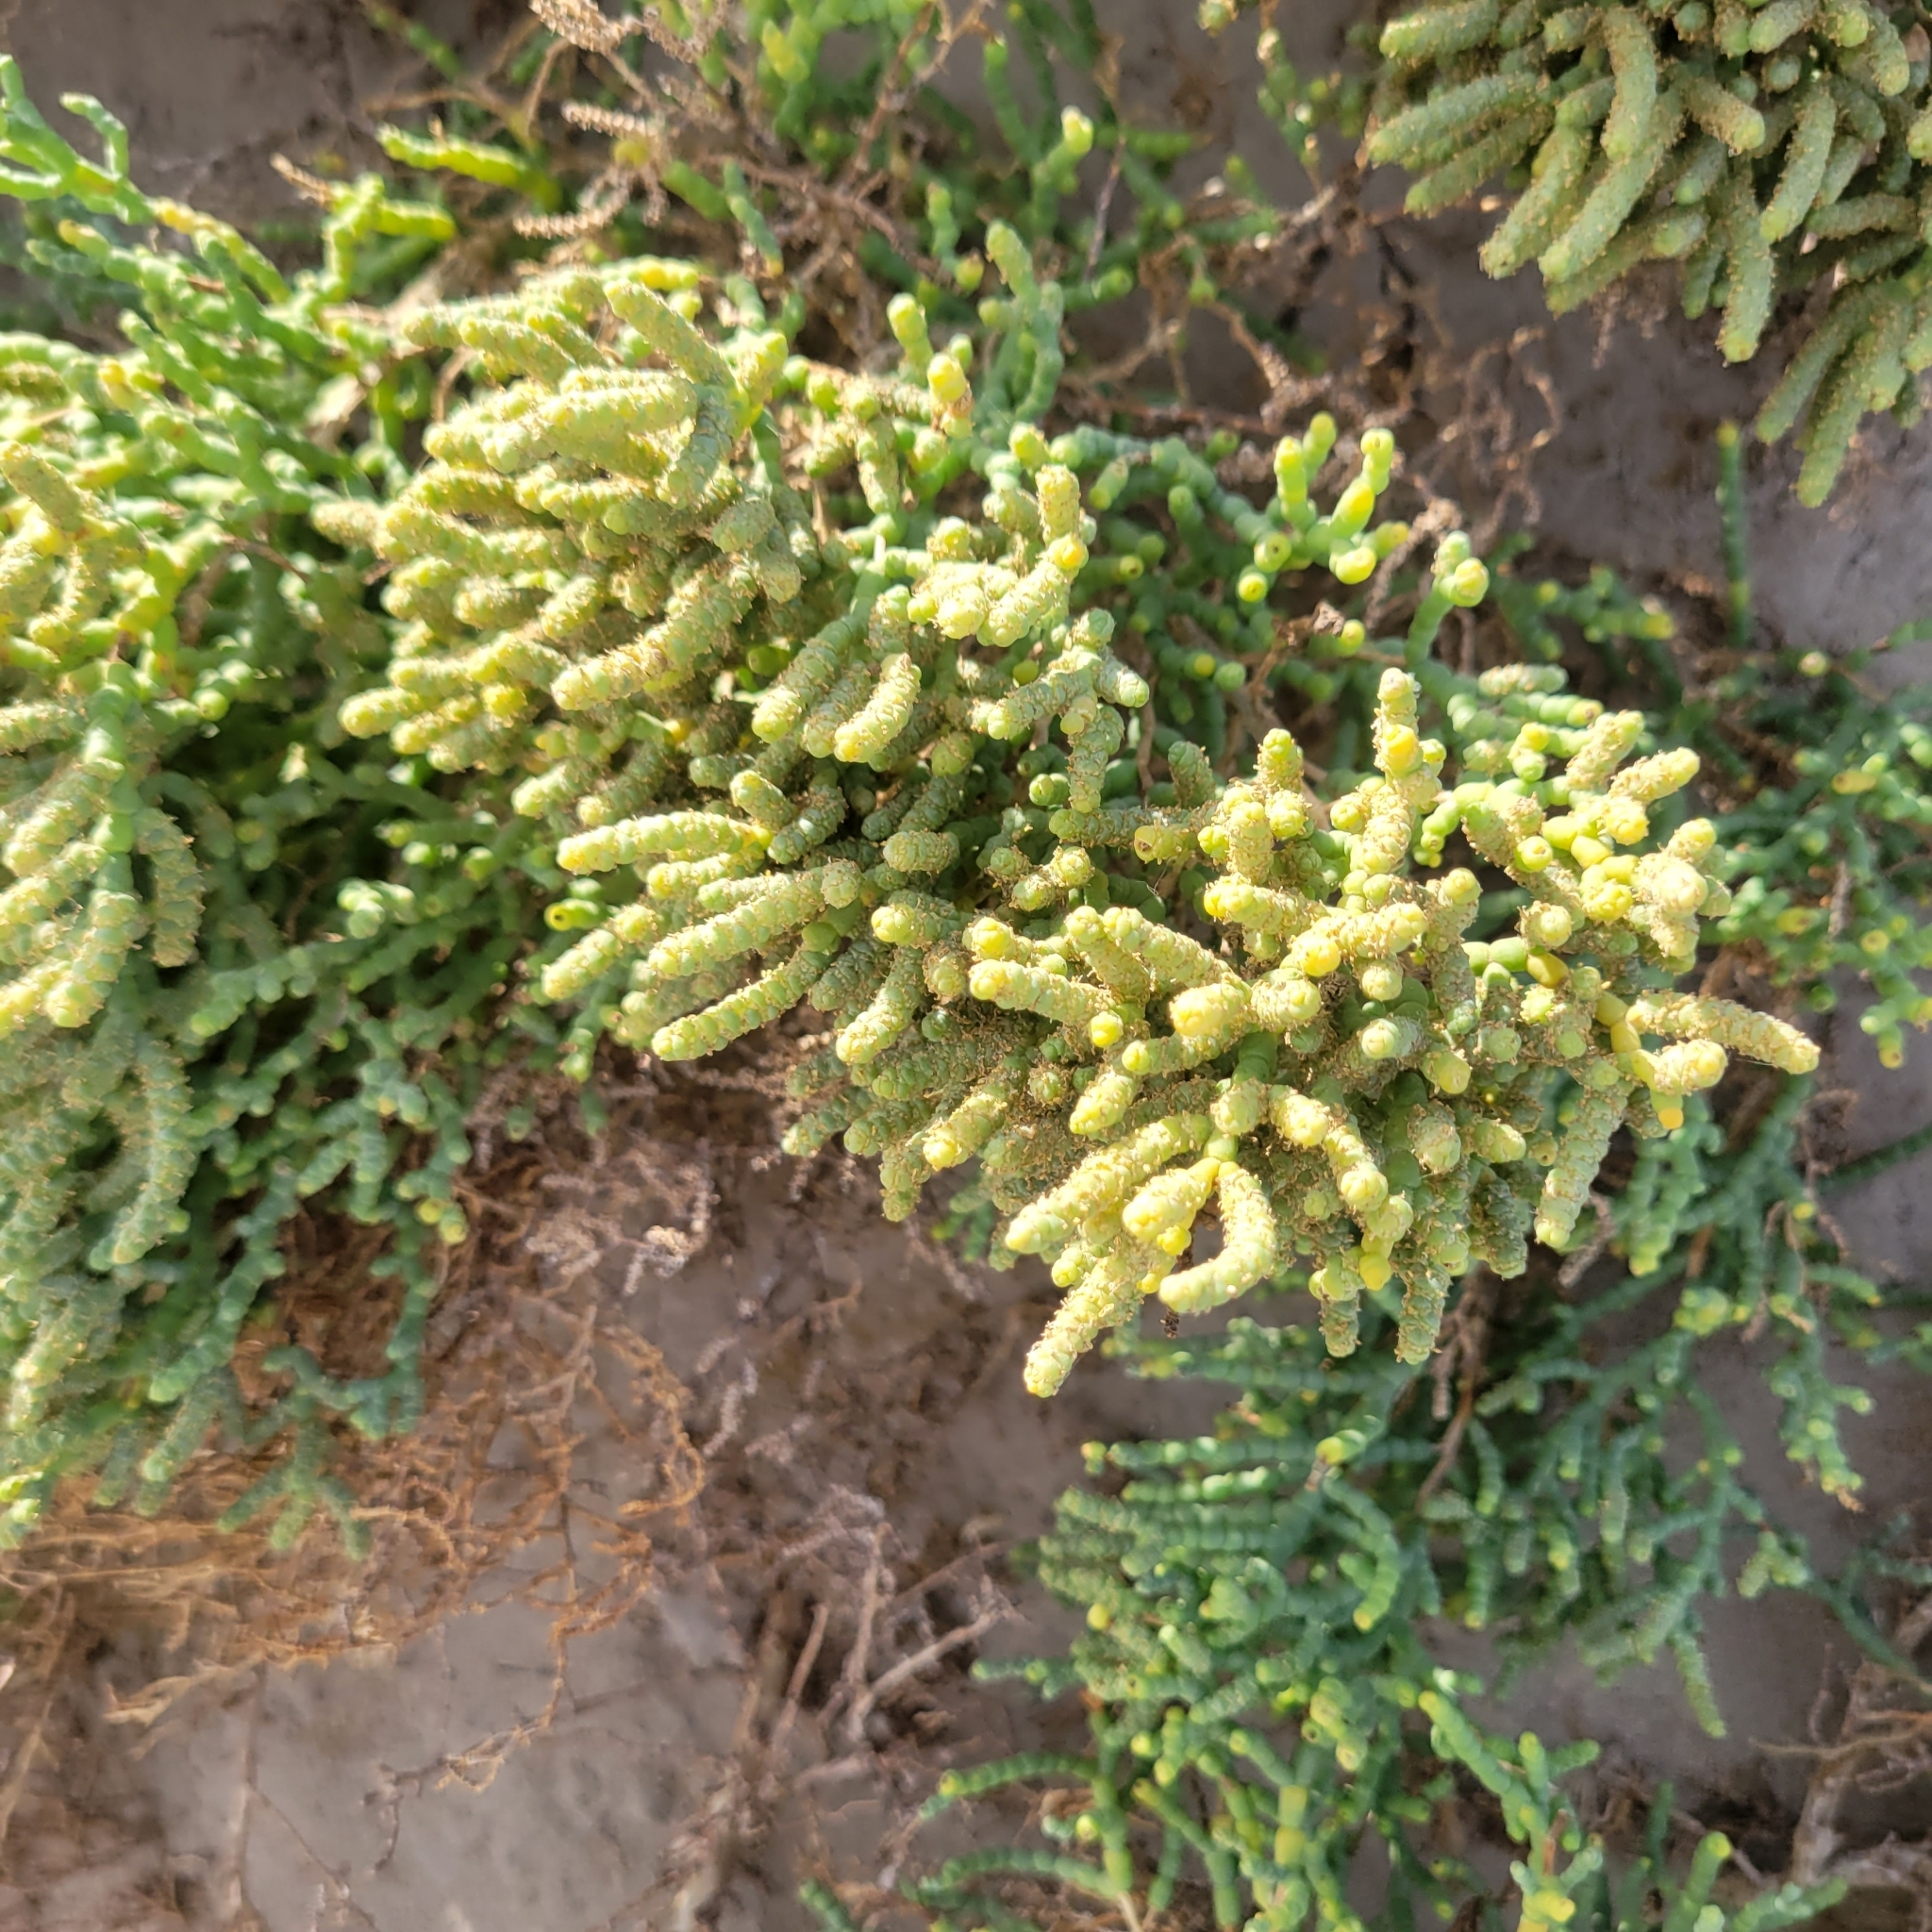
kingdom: Plantae
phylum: Tracheophyta
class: Magnoliopsida
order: Caryophyllales
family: Amaranthaceae
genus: Allenrolfea
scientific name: Allenrolfea occidentalis
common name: Iodine-bush
